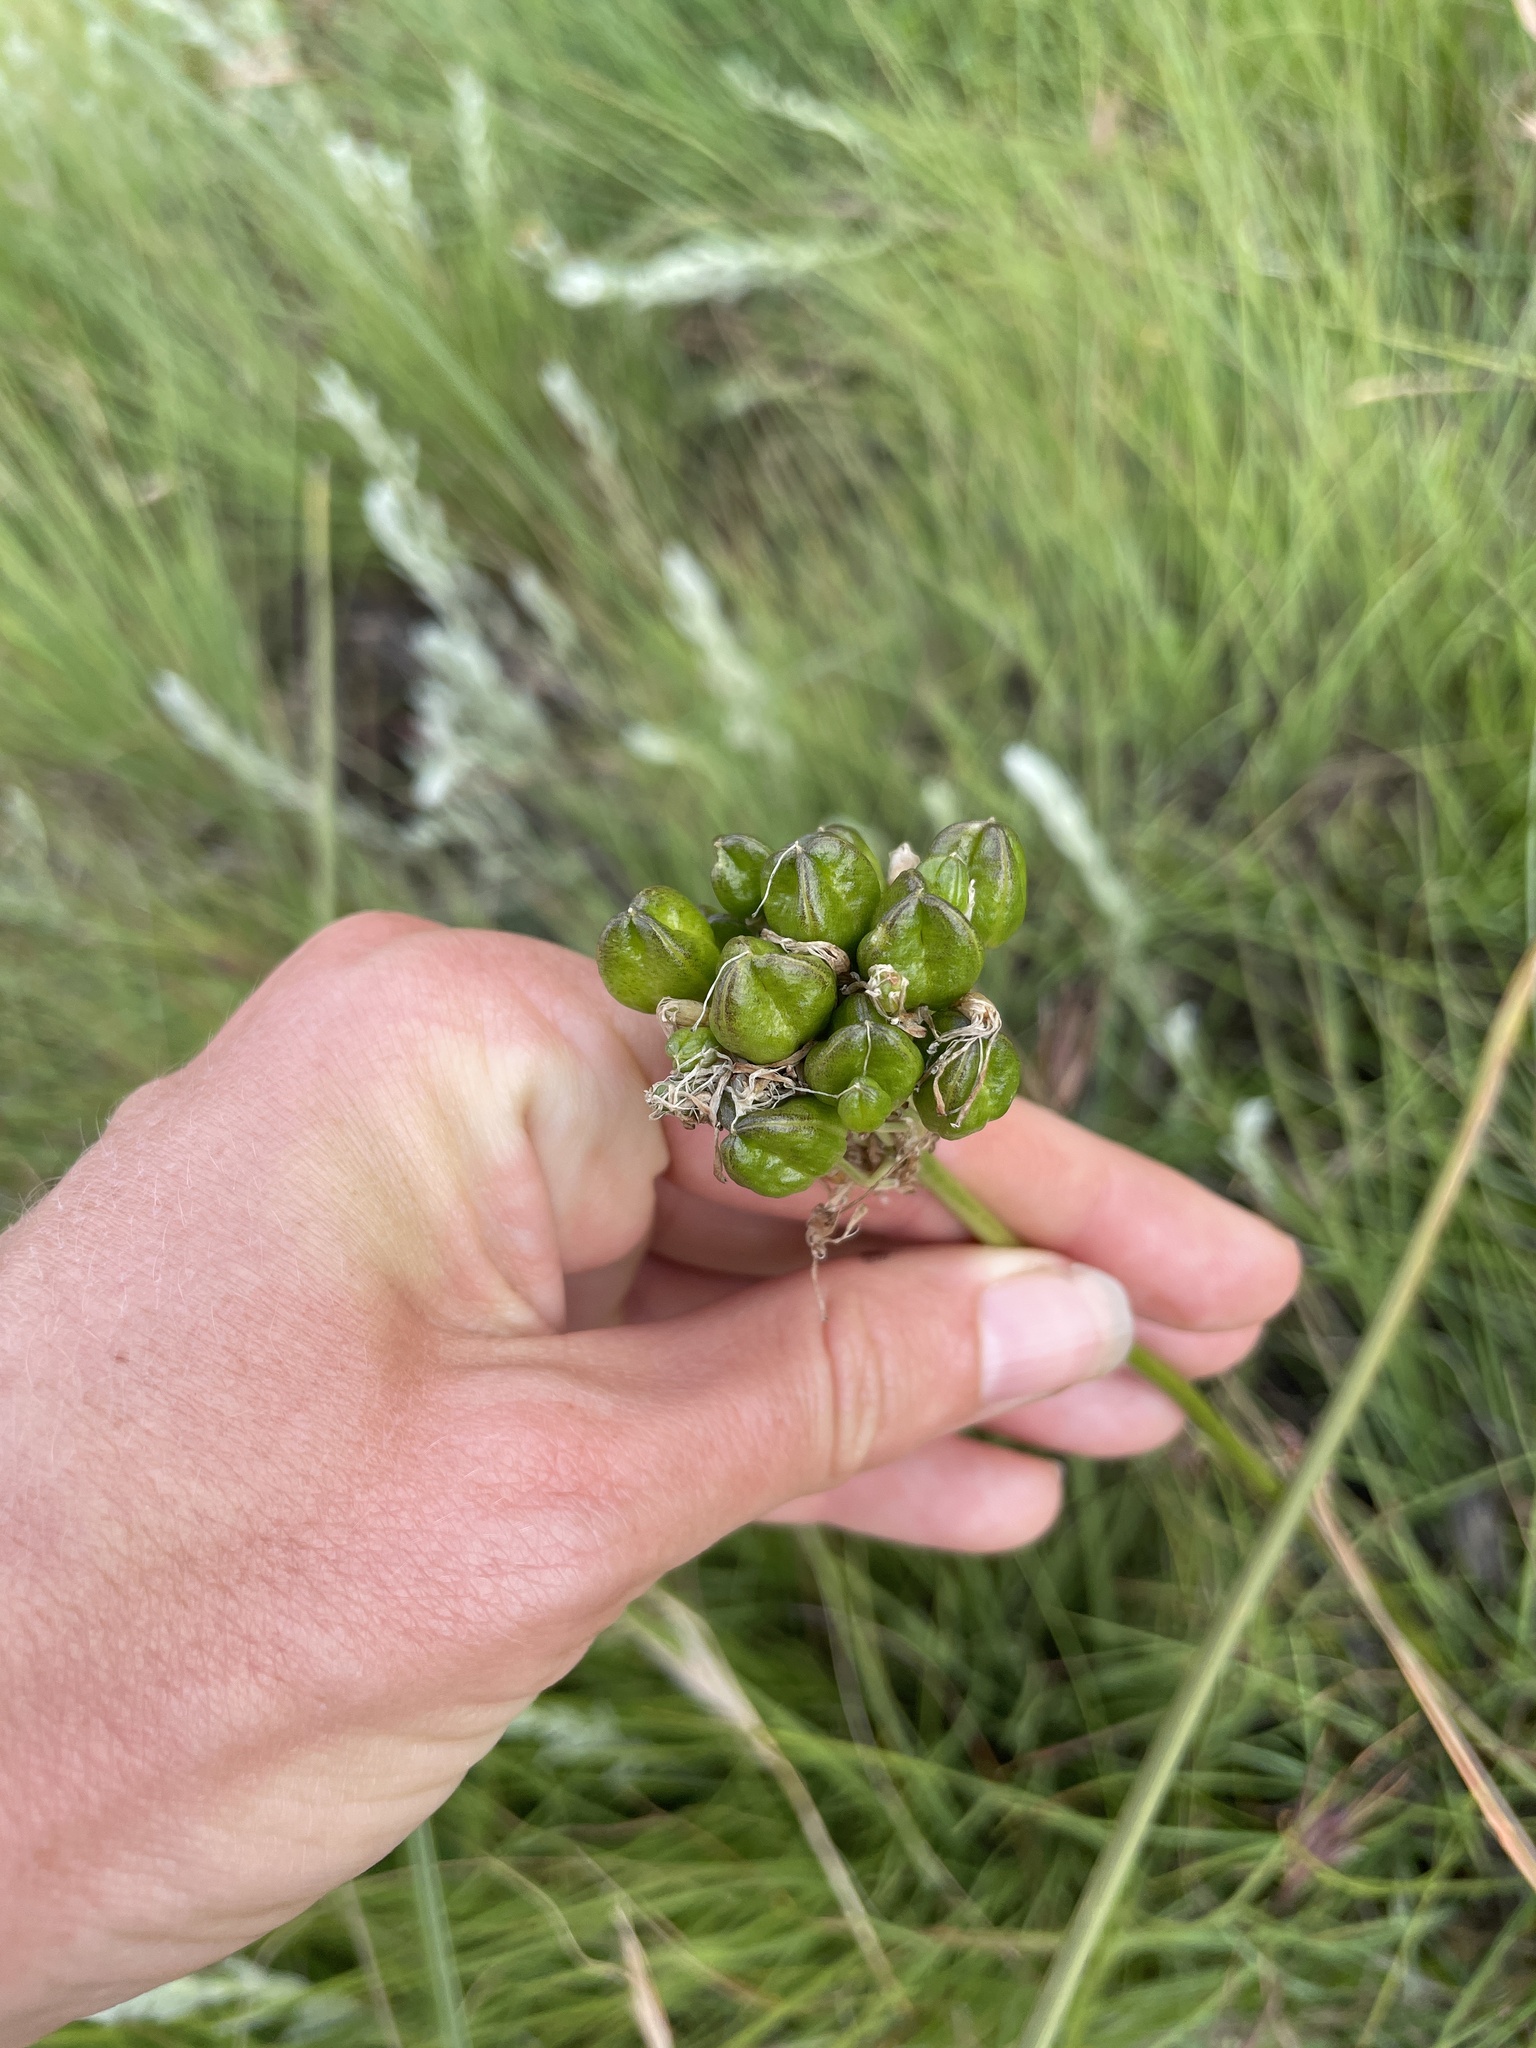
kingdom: Plantae
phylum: Tracheophyta
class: Liliopsida
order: Asparagales
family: Asparagaceae
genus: Drimia
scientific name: Drimia sphaerocephala
